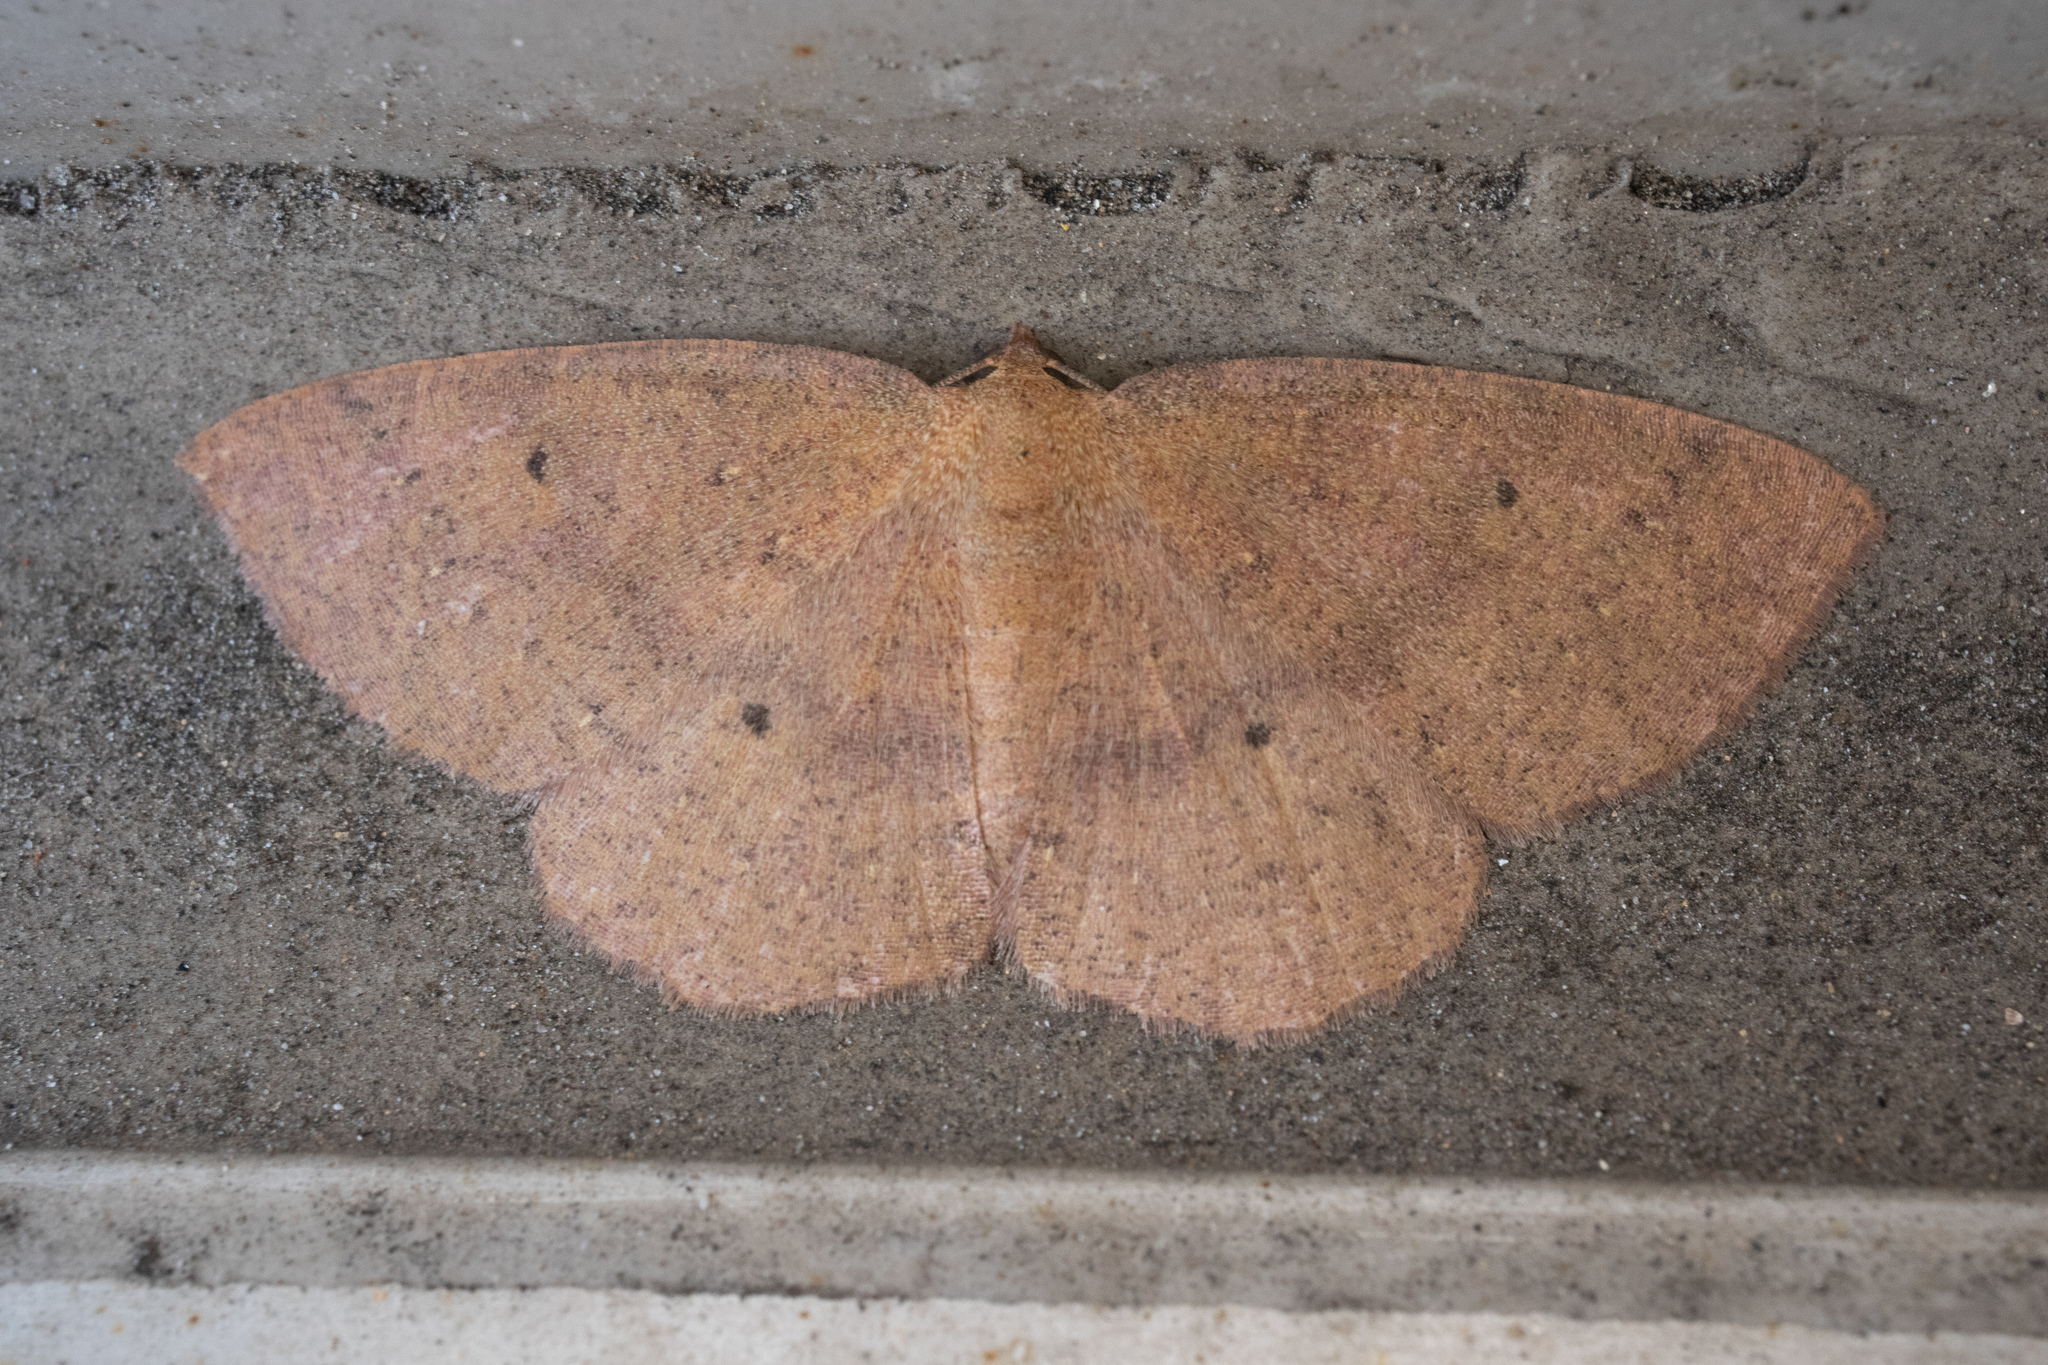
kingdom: Animalia
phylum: Arthropoda
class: Insecta
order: Lepidoptera
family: Geometridae
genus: Ilexia
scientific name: Ilexia intractata
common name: Black-dotted ruddy moth
